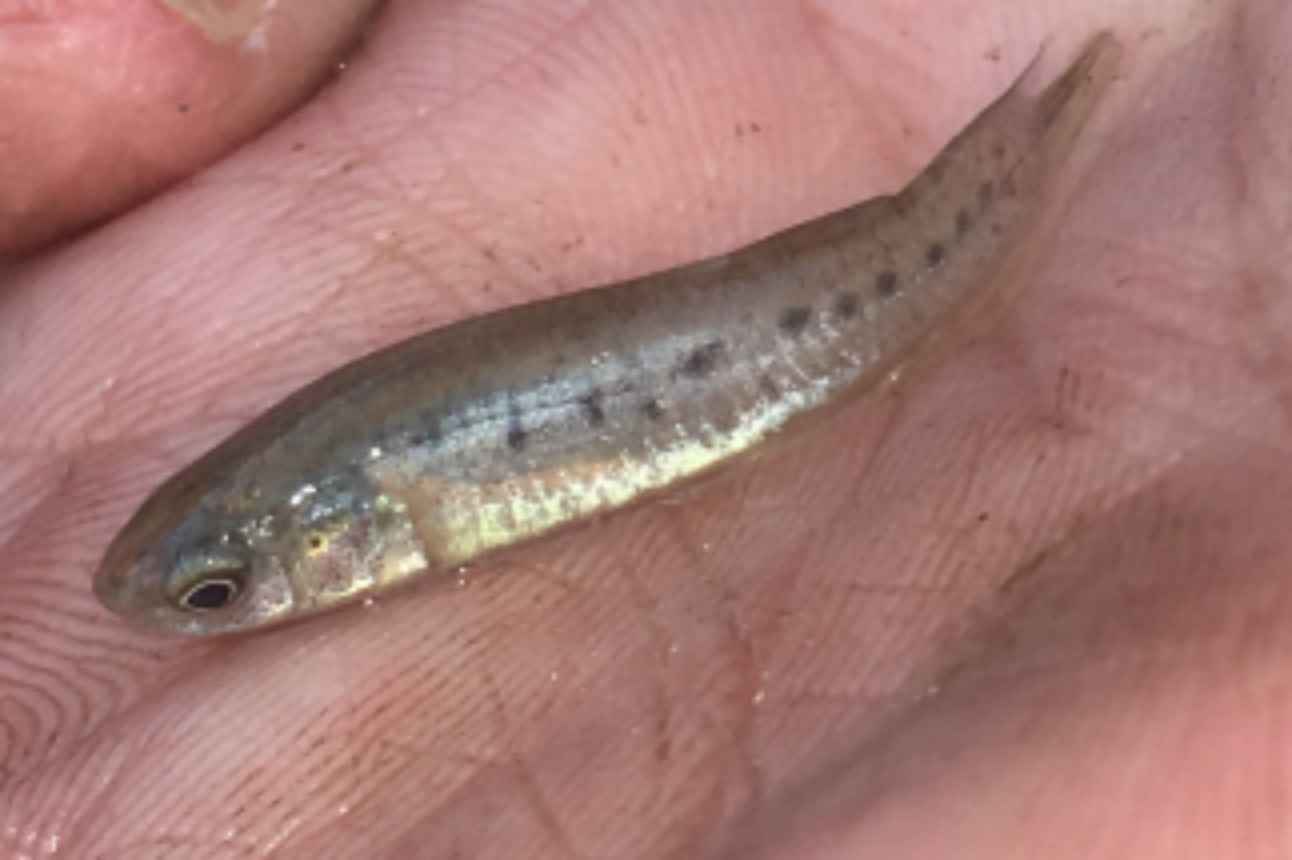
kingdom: Animalia
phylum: Chordata
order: Cyprinodontiformes
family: Fundulidae
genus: Fundulus
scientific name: Fundulus pulvereus
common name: Bayou killifish
